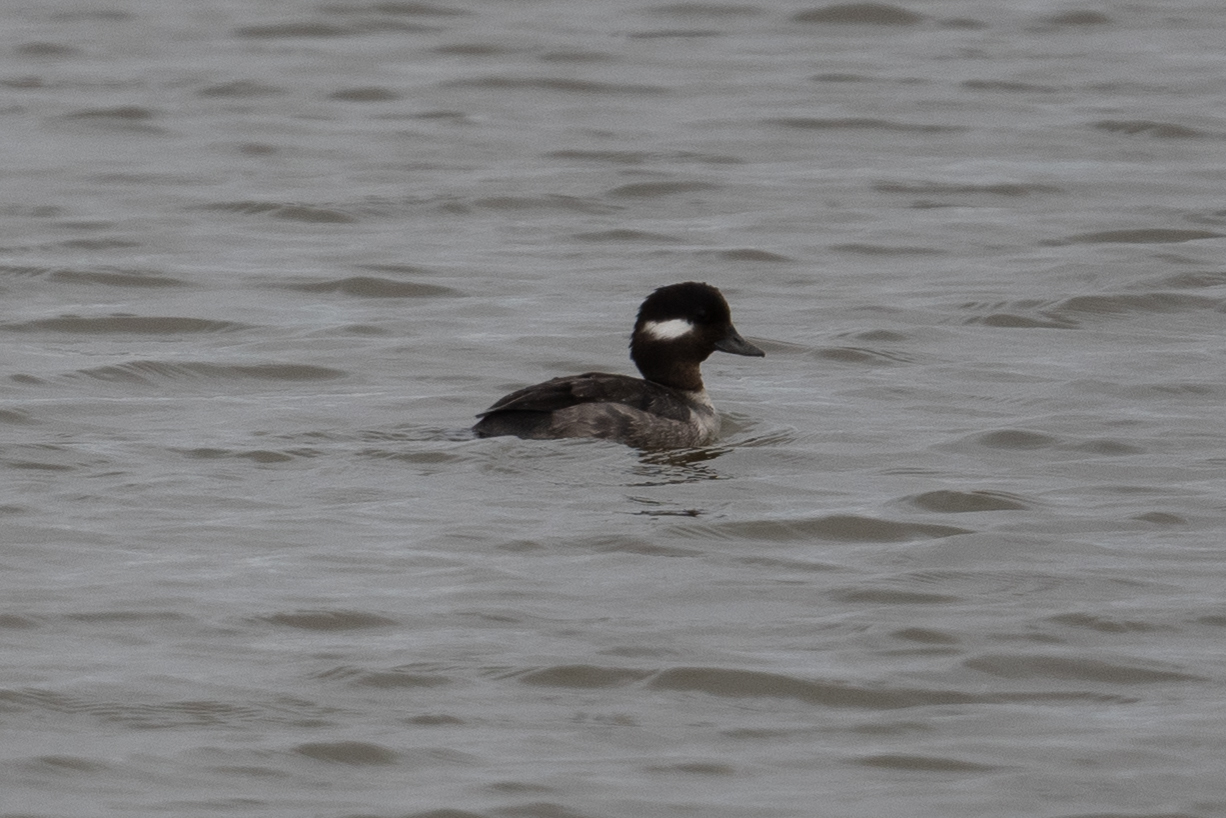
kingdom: Animalia
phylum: Chordata
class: Aves
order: Anseriformes
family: Anatidae
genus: Bucephala
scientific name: Bucephala albeola
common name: Bufflehead
